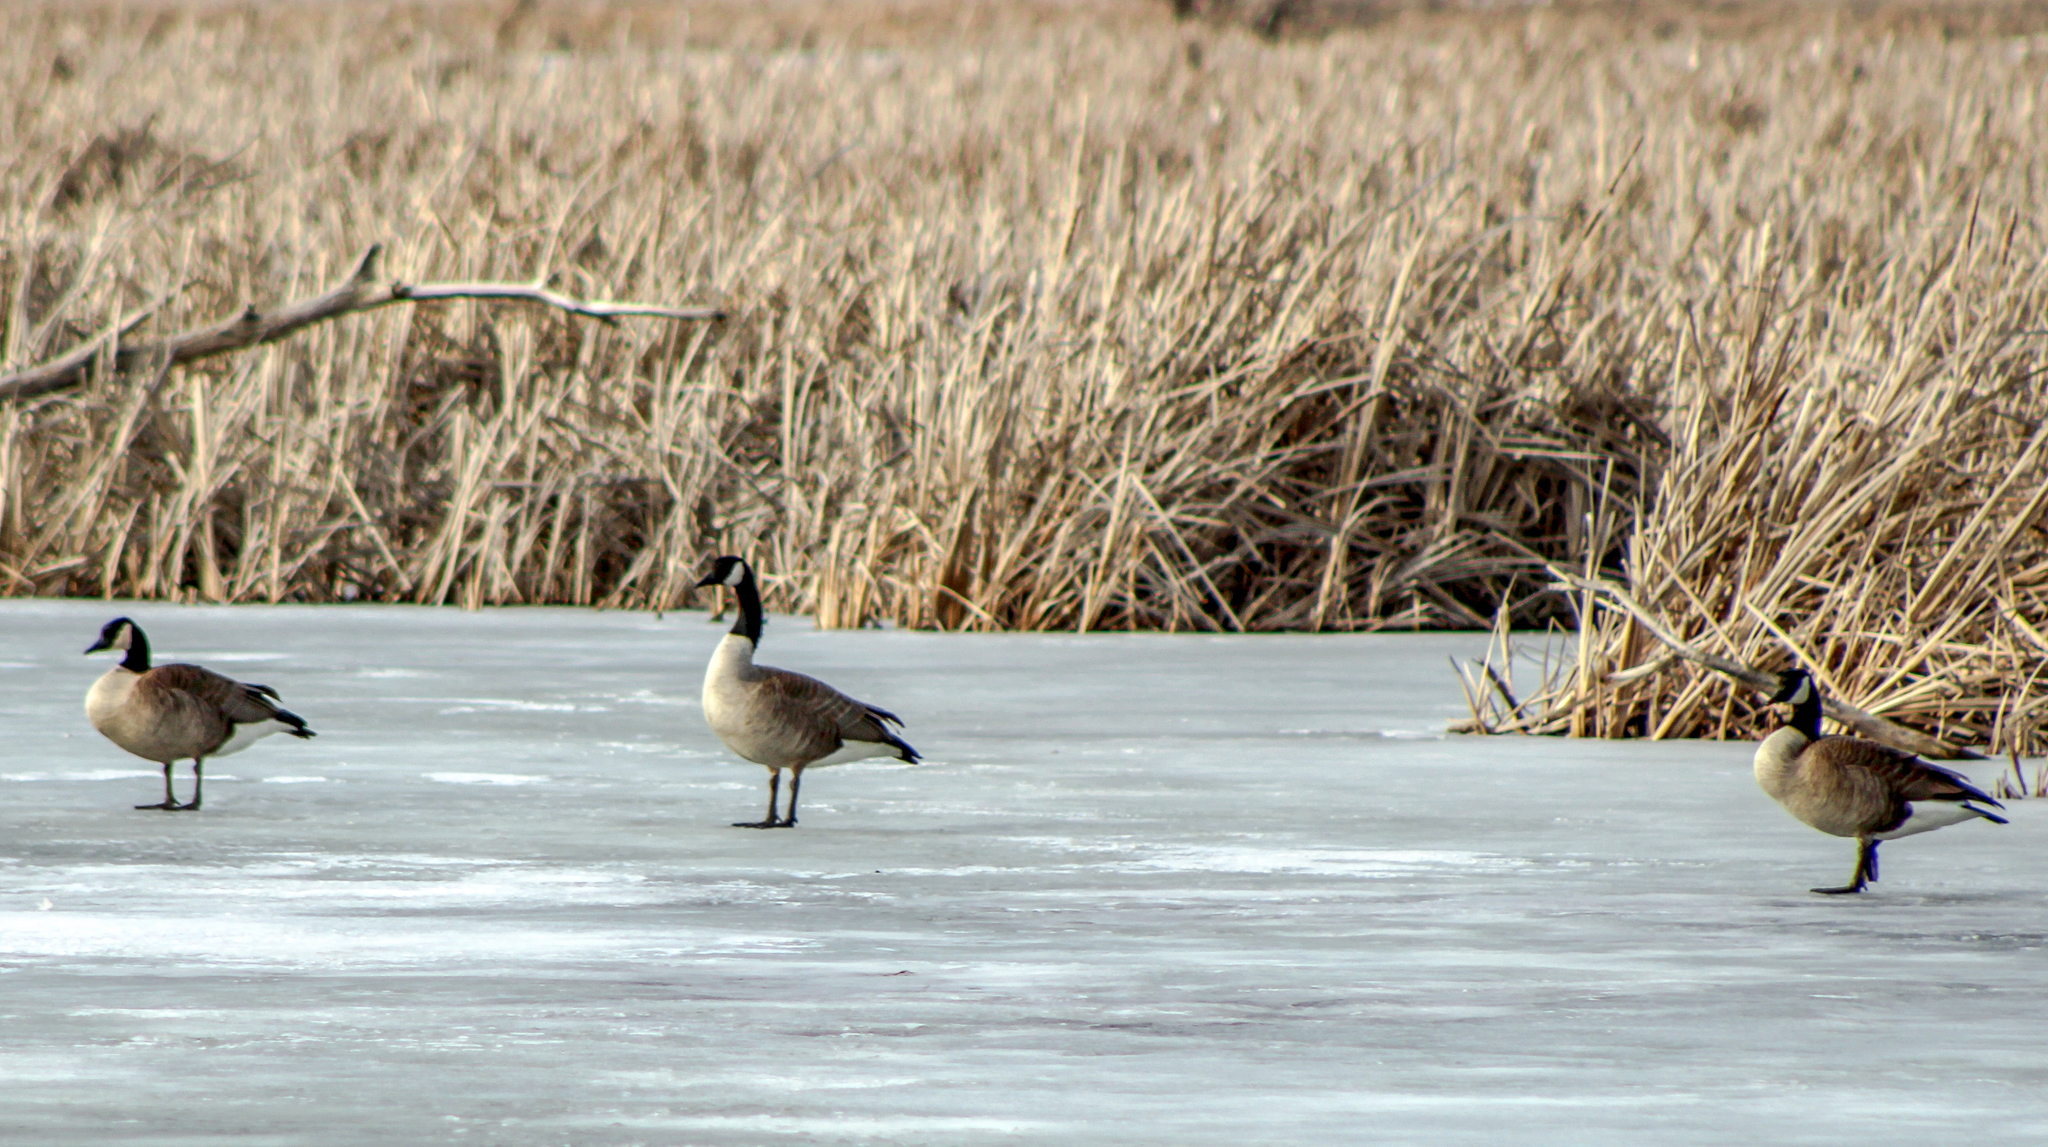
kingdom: Animalia
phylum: Chordata
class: Aves
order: Anseriformes
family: Anatidae
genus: Branta
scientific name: Branta canadensis
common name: Canada goose
